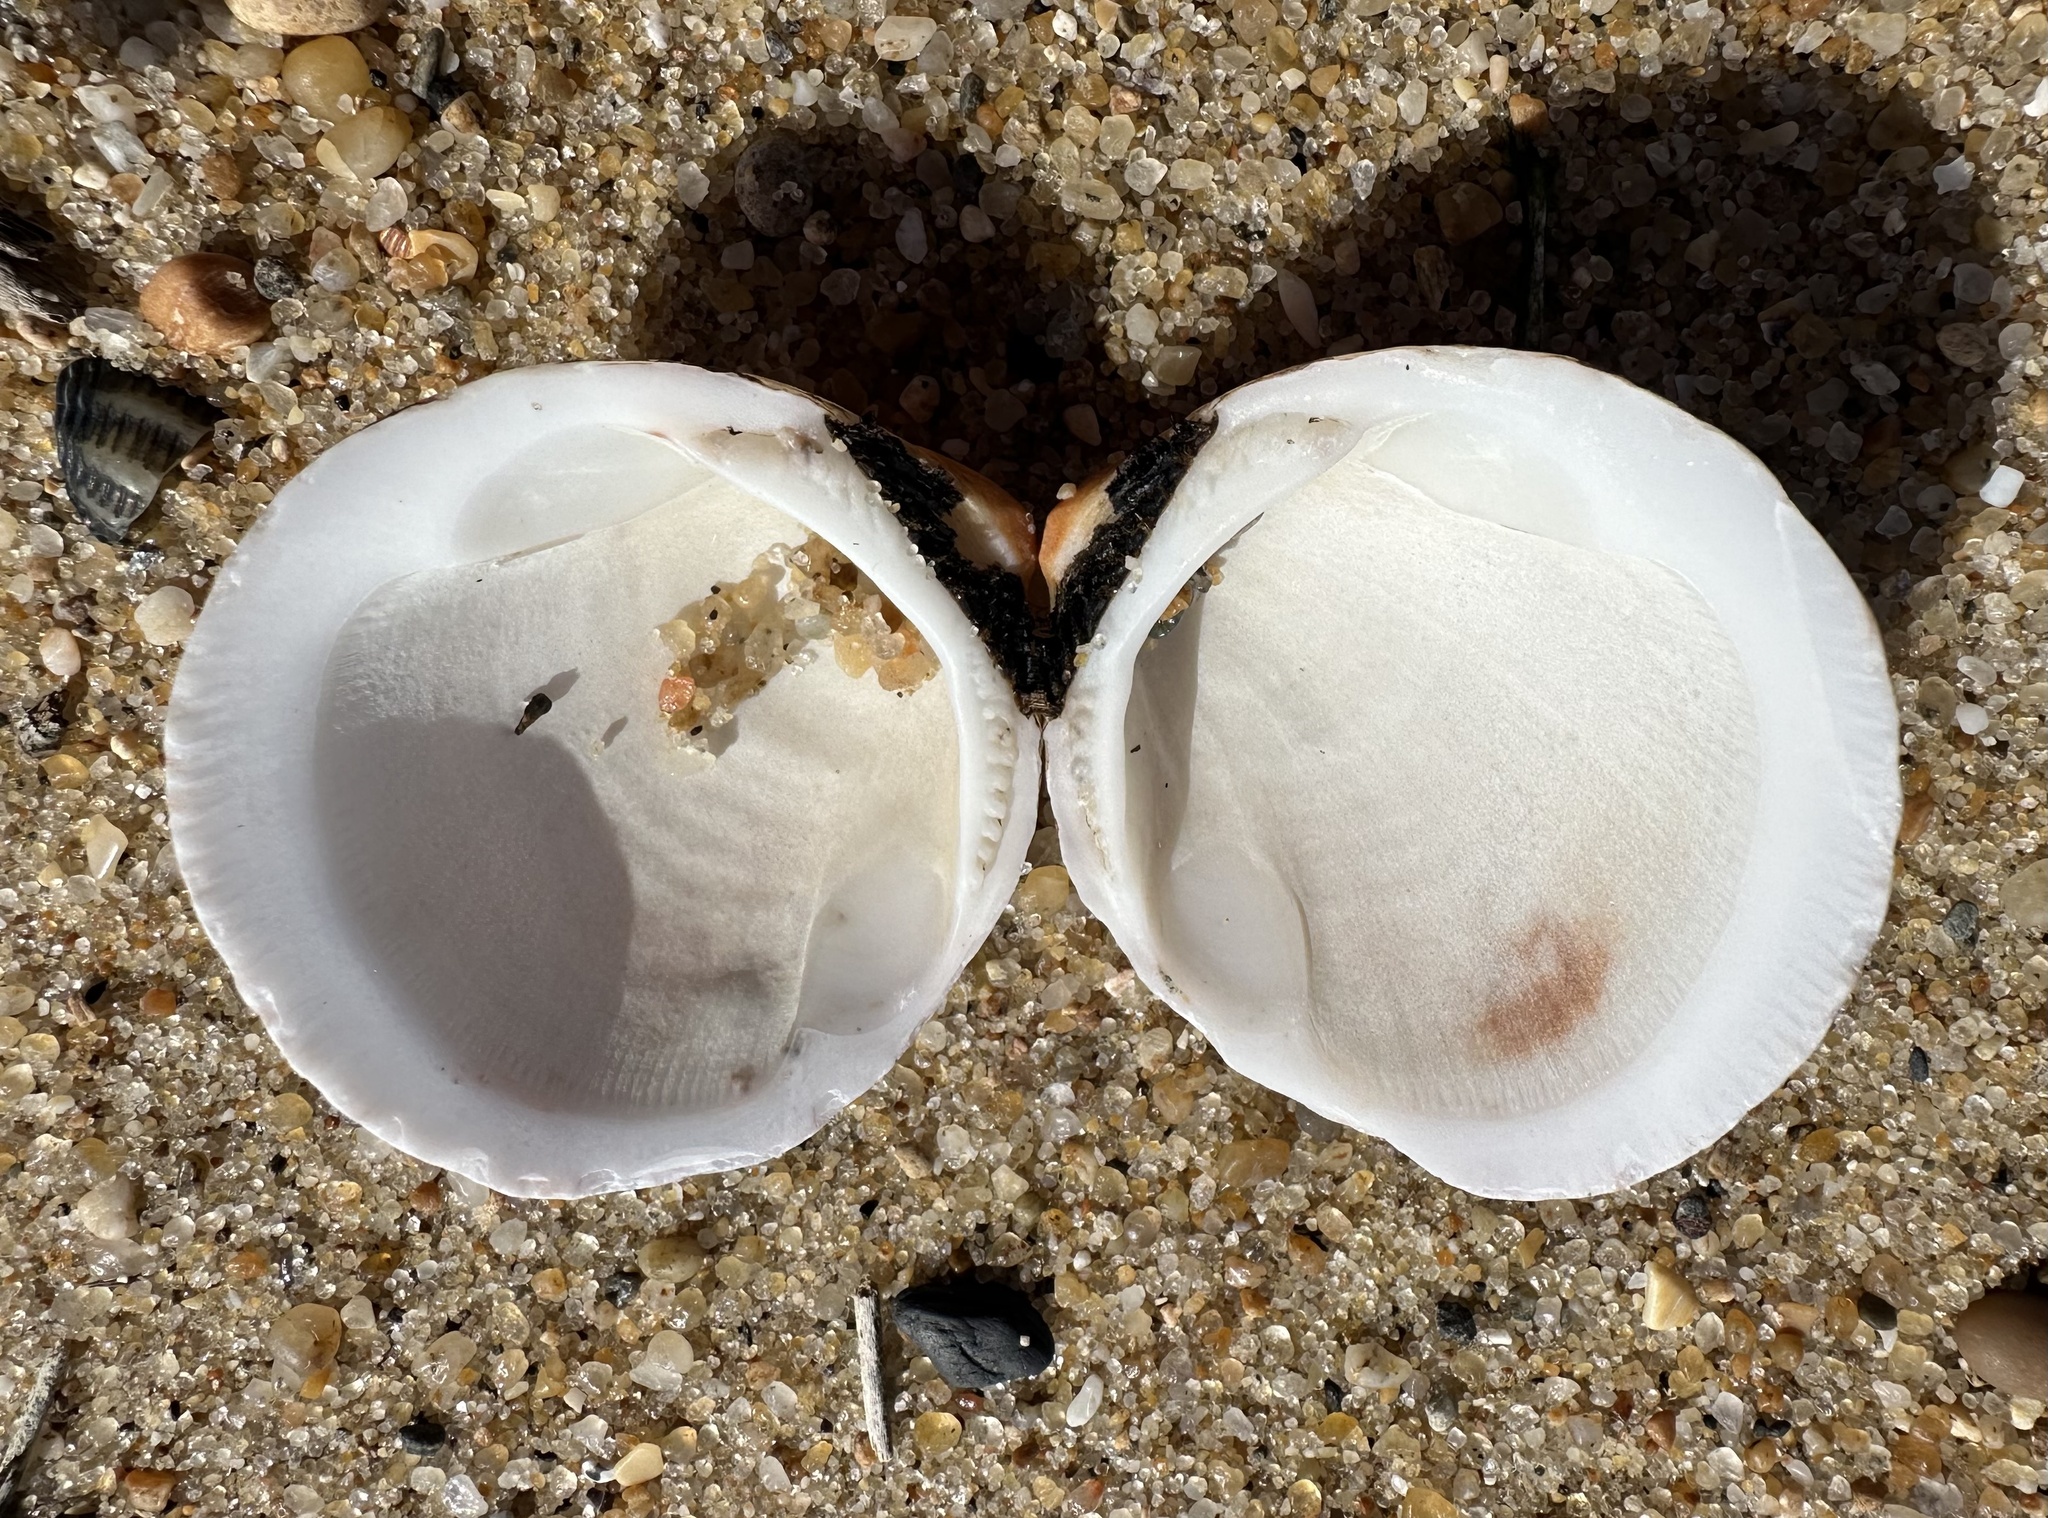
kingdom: Animalia
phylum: Mollusca
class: Bivalvia
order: Arcida
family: Glycymerididae
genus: Glycymeris
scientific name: Glycymeris glycymeris
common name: Dog-cockle
